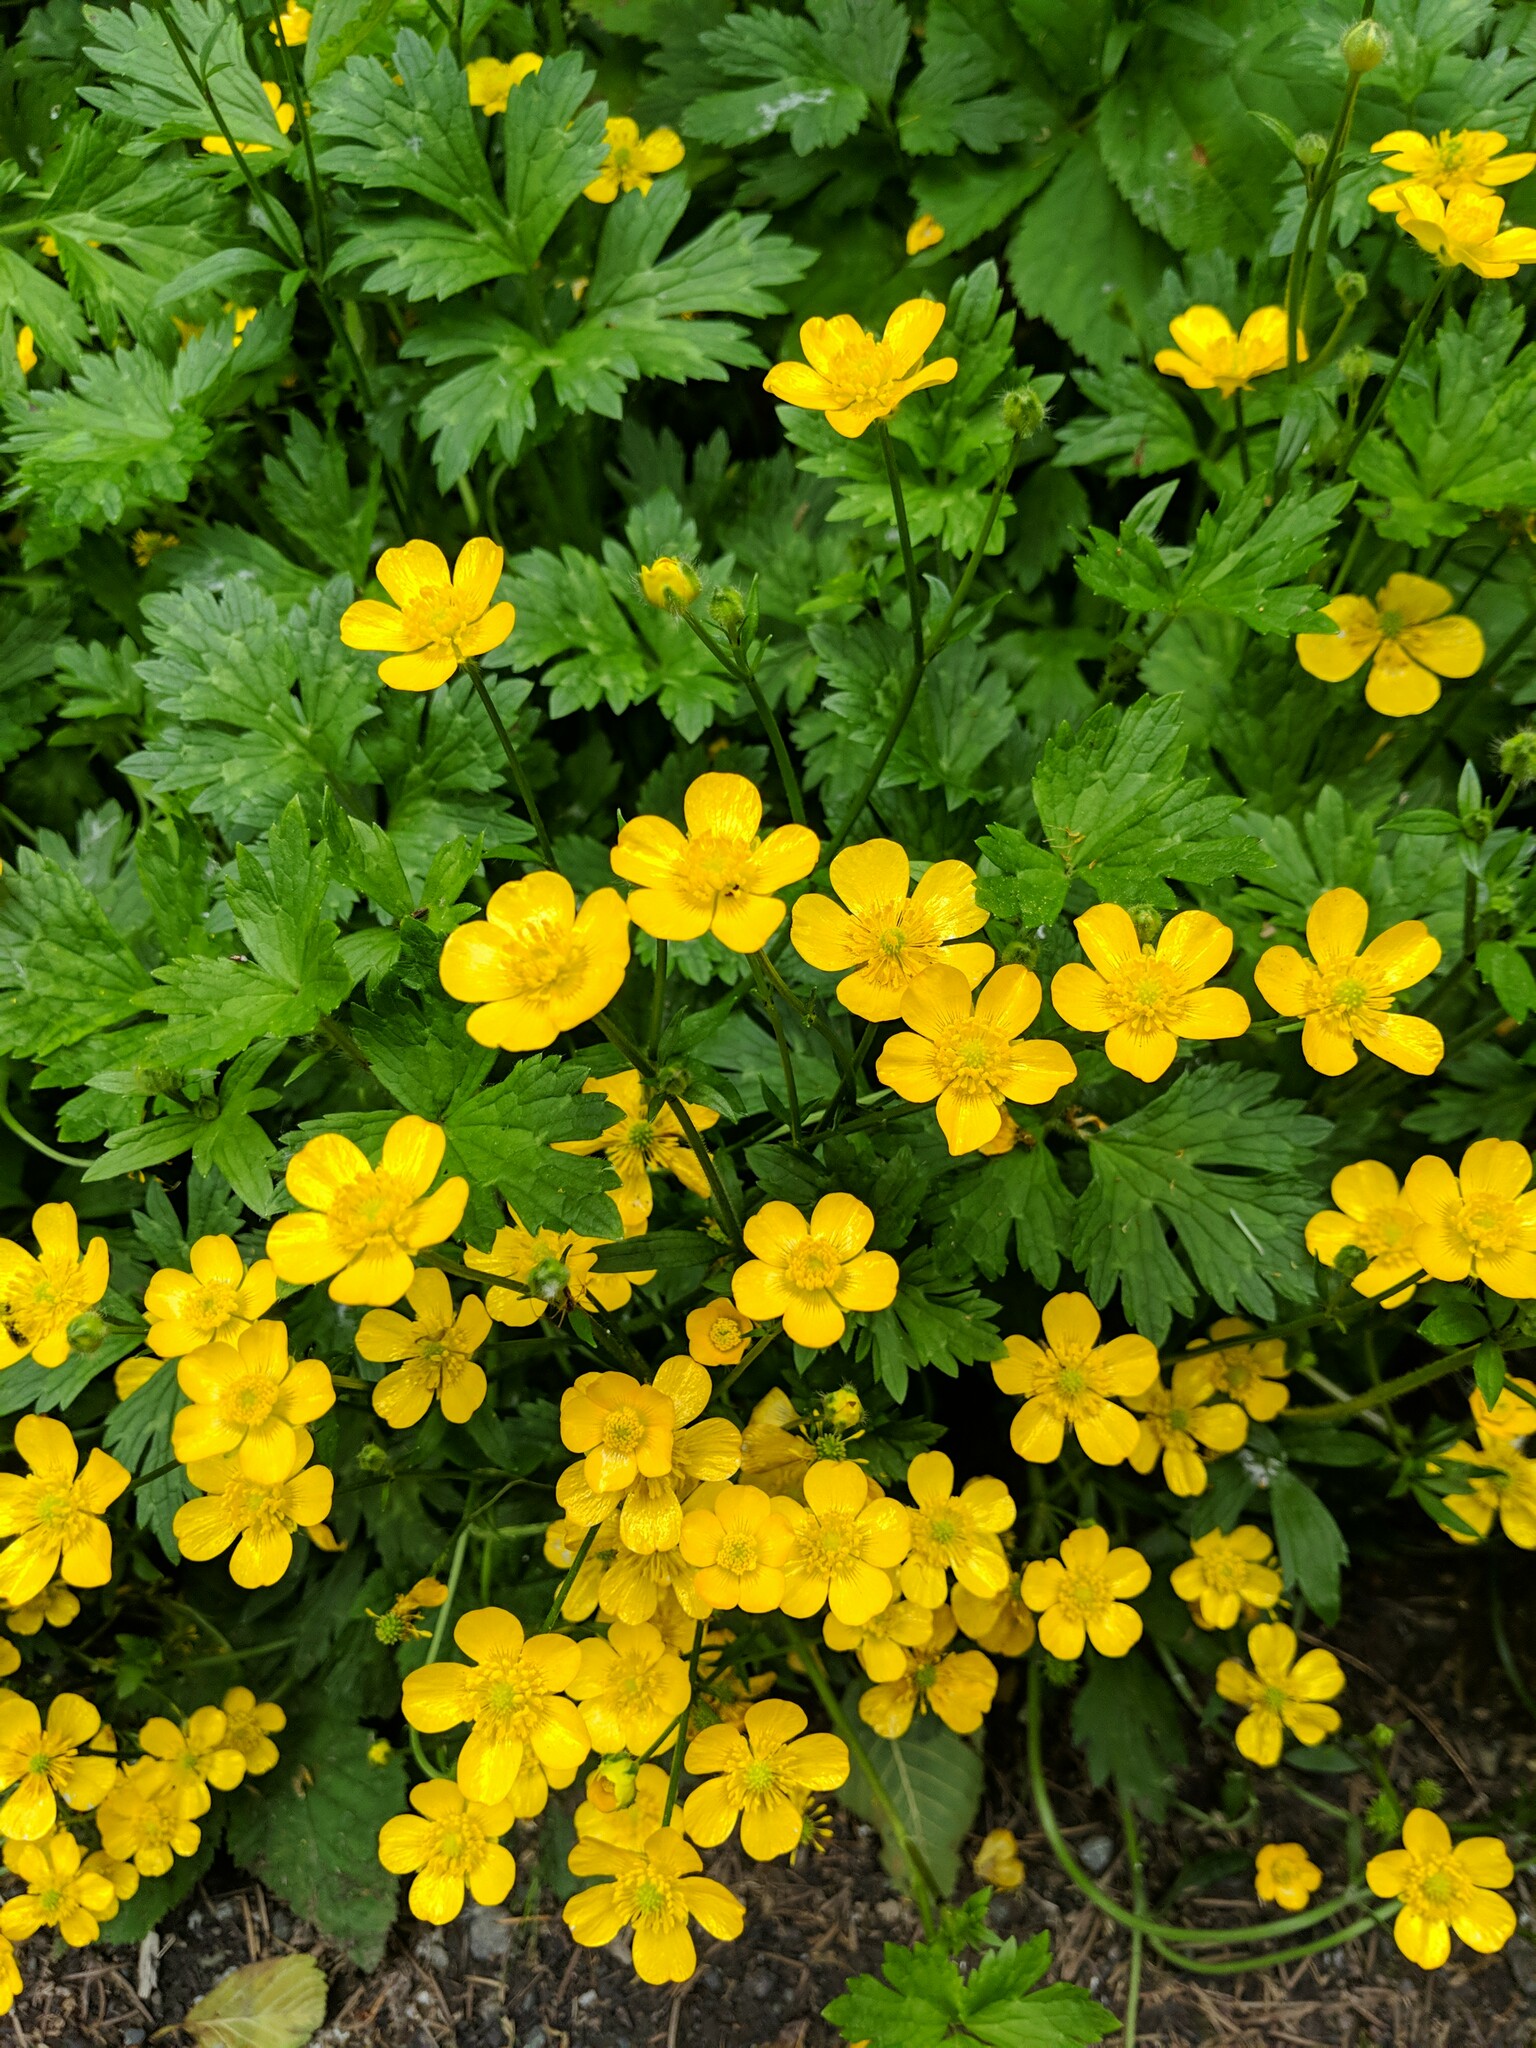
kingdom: Plantae
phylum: Tracheophyta
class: Magnoliopsida
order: Ranunculales
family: Ranunculaceae
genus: Ranunculus
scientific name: Ranunculus repens
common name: Creeping buttercup
